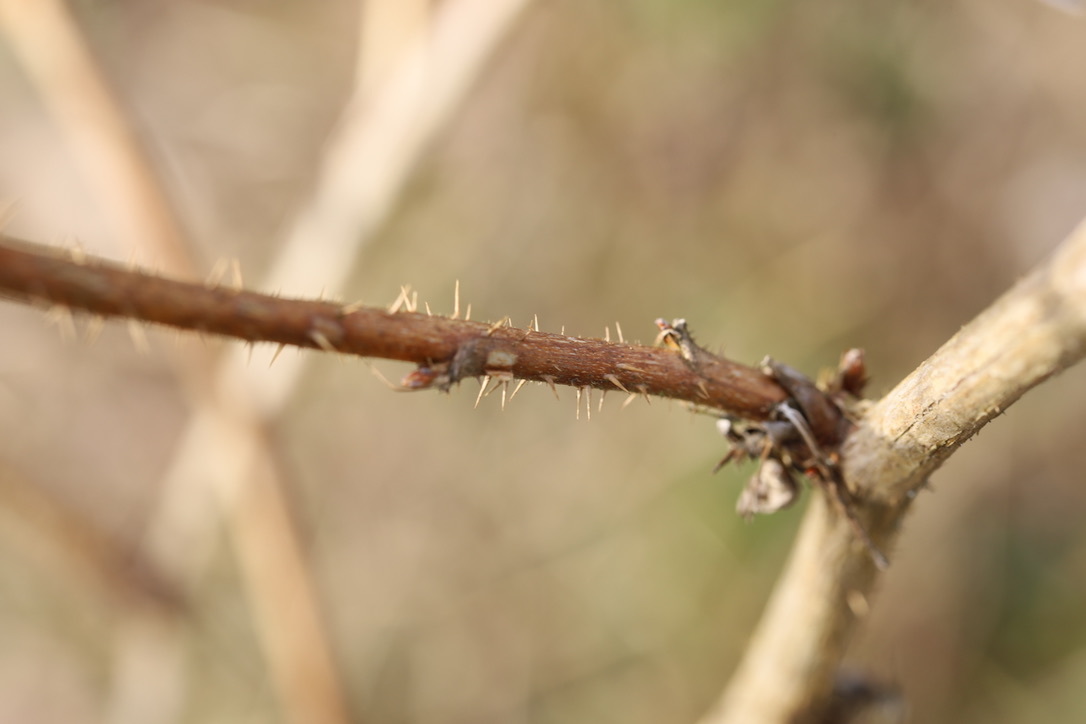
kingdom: Plantae
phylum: Tracheophyta
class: Magnoliopsida
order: Rosales
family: Rosaceae
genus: Rubus
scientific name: Rubus spectabilis
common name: Salmonberry
